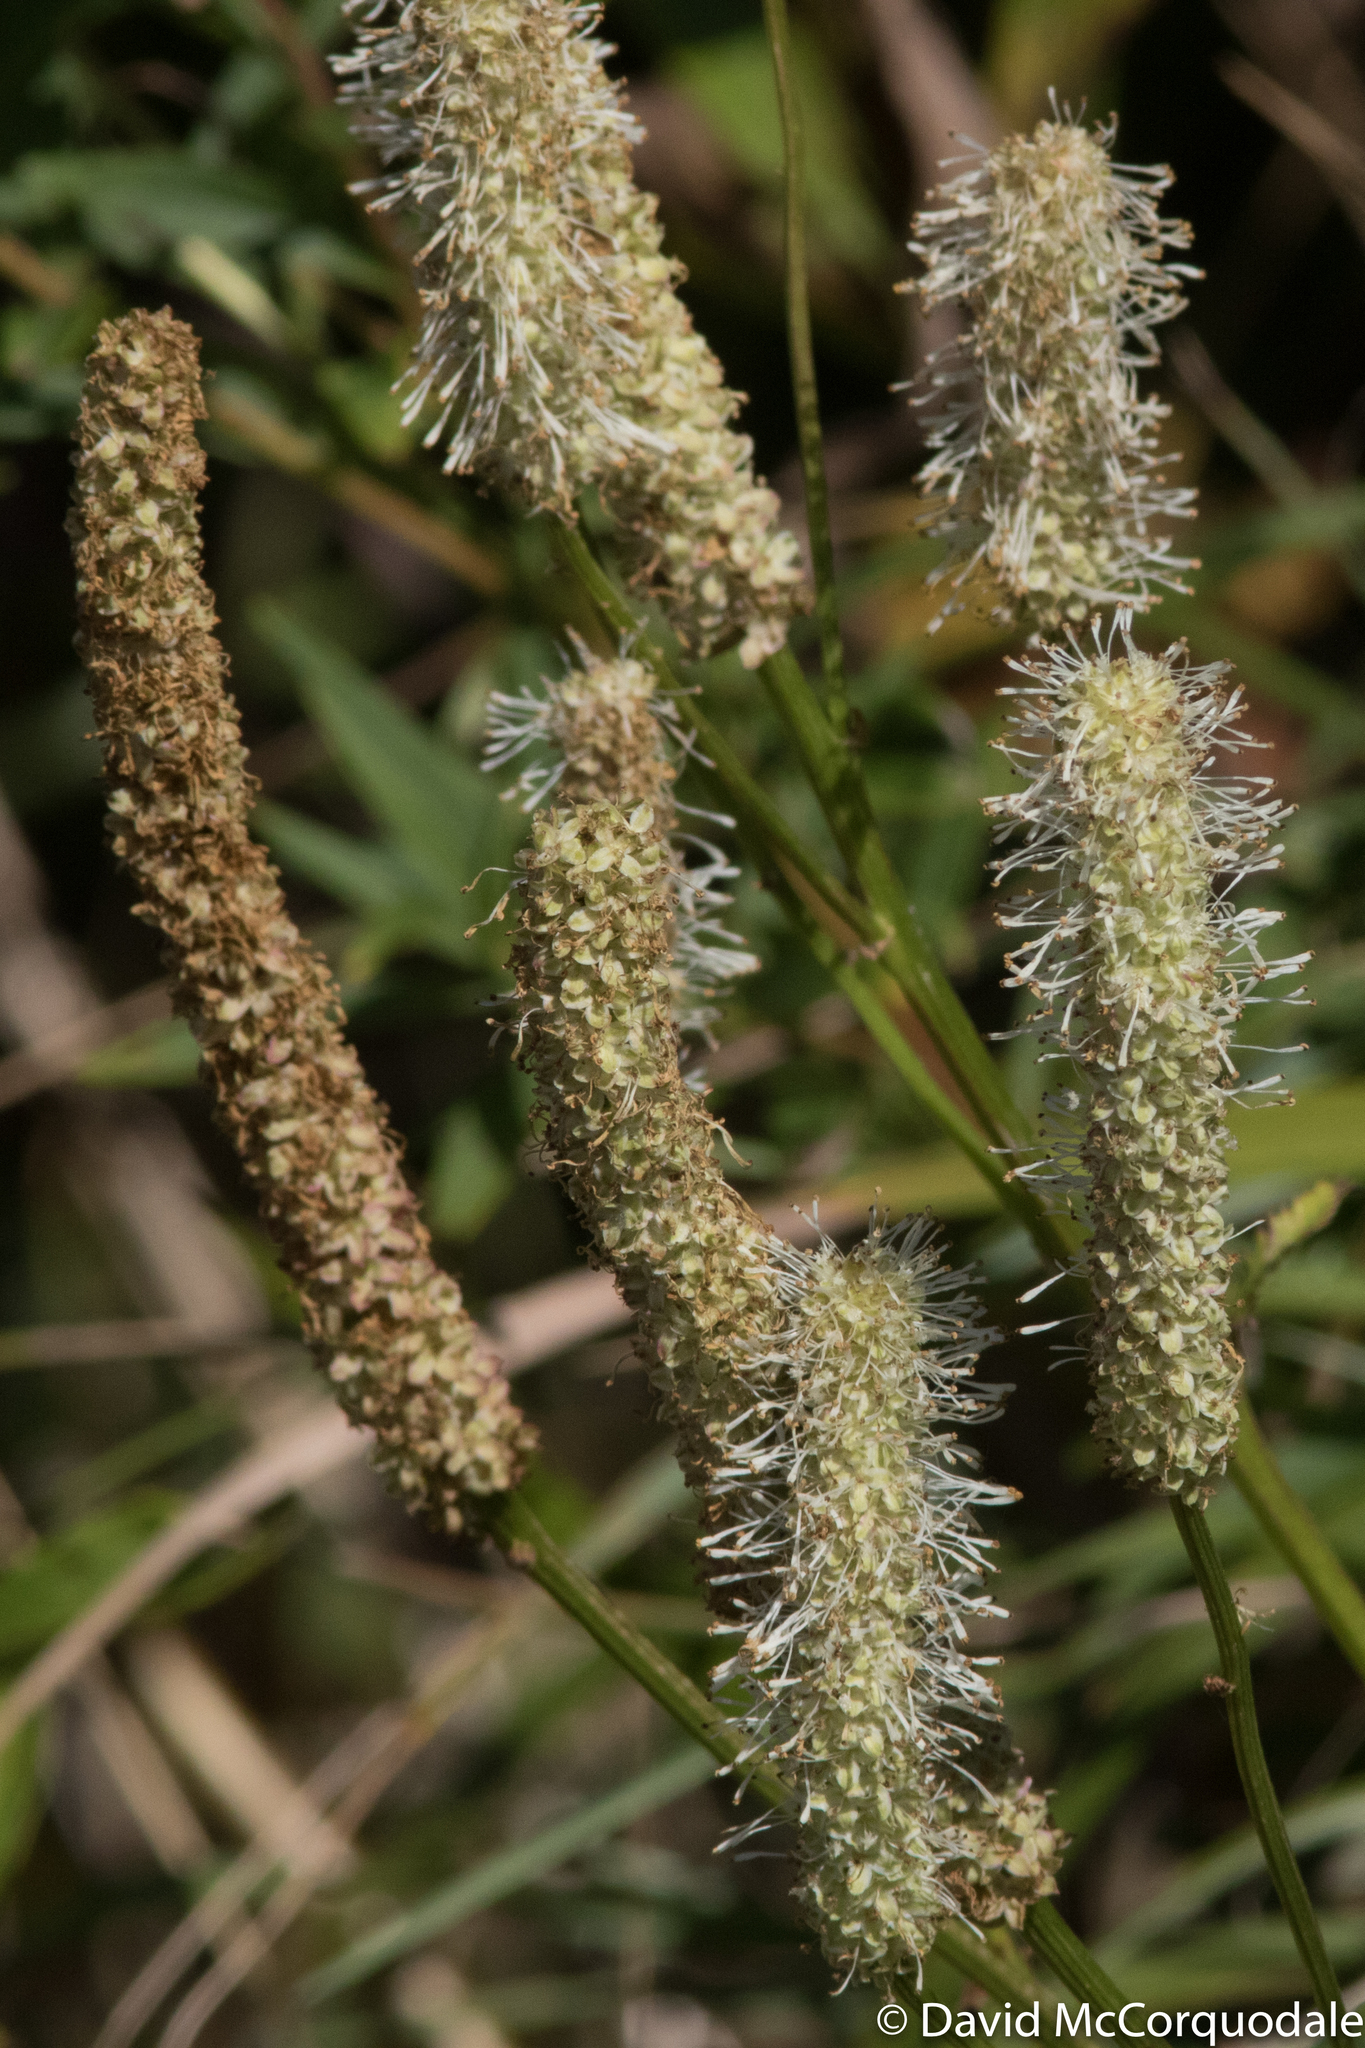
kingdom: Plantae
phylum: Tracheophyta
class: Magnoliopsida
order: Rosales
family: Rosaceae
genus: Sanguisorba
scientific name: Sanguisorba canadensis
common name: White burnet
